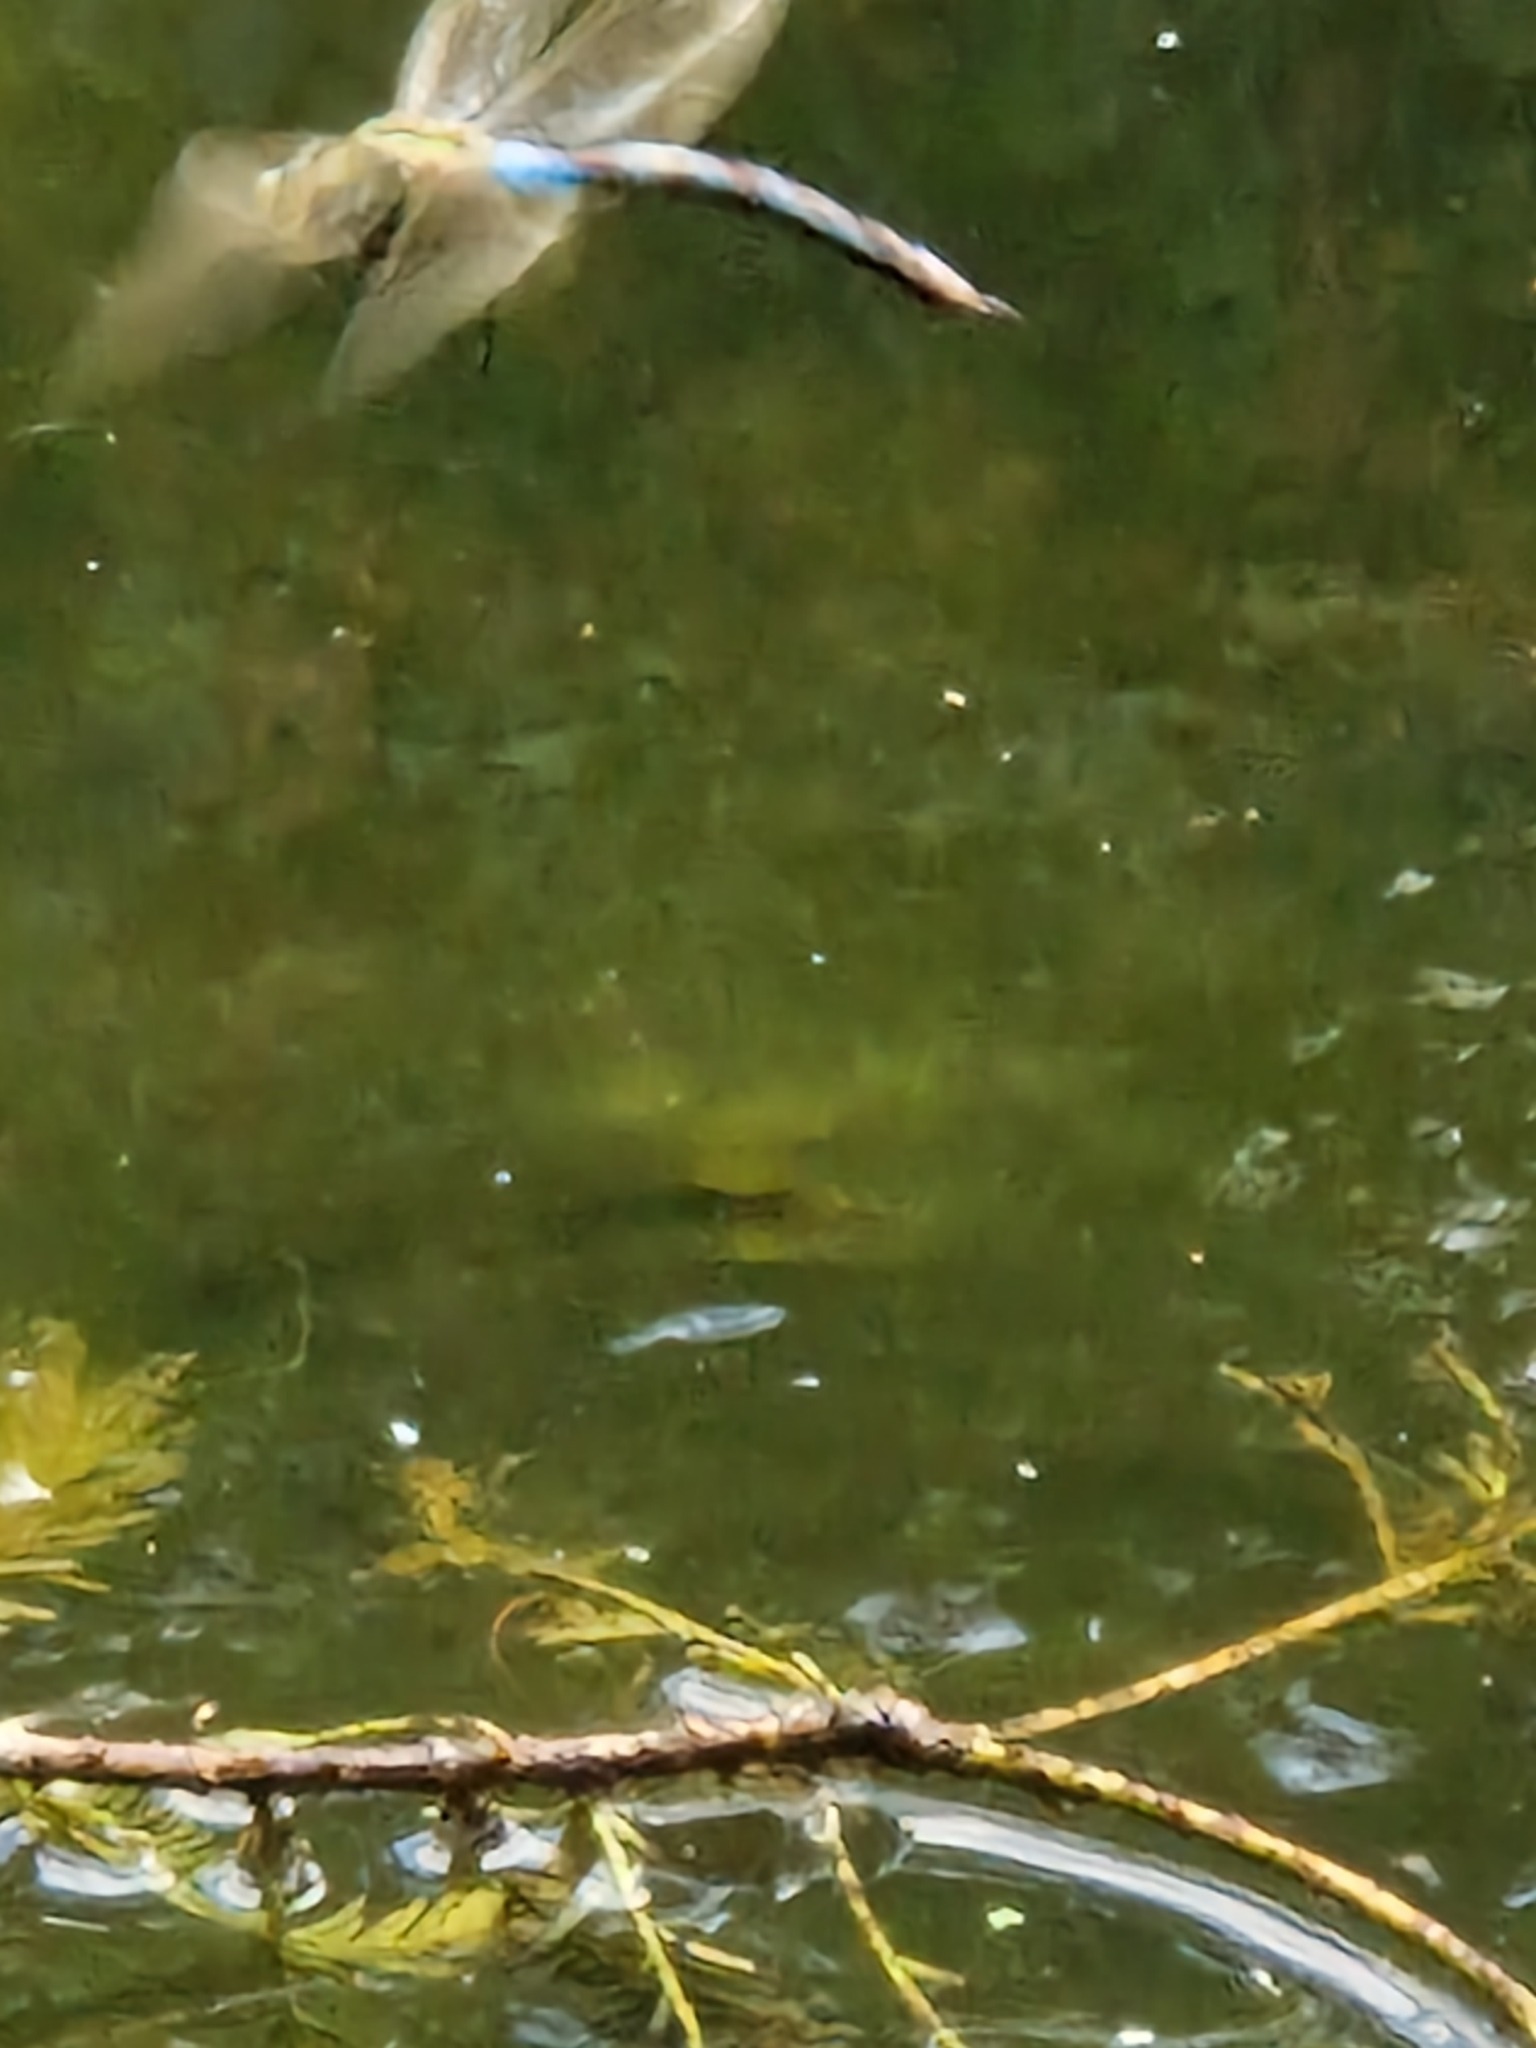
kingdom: Animalia
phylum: Arthropoda
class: Insecta
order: Odonata
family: Aeshnidae
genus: Anax
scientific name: Anax imperator
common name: Emperor dragonfly
